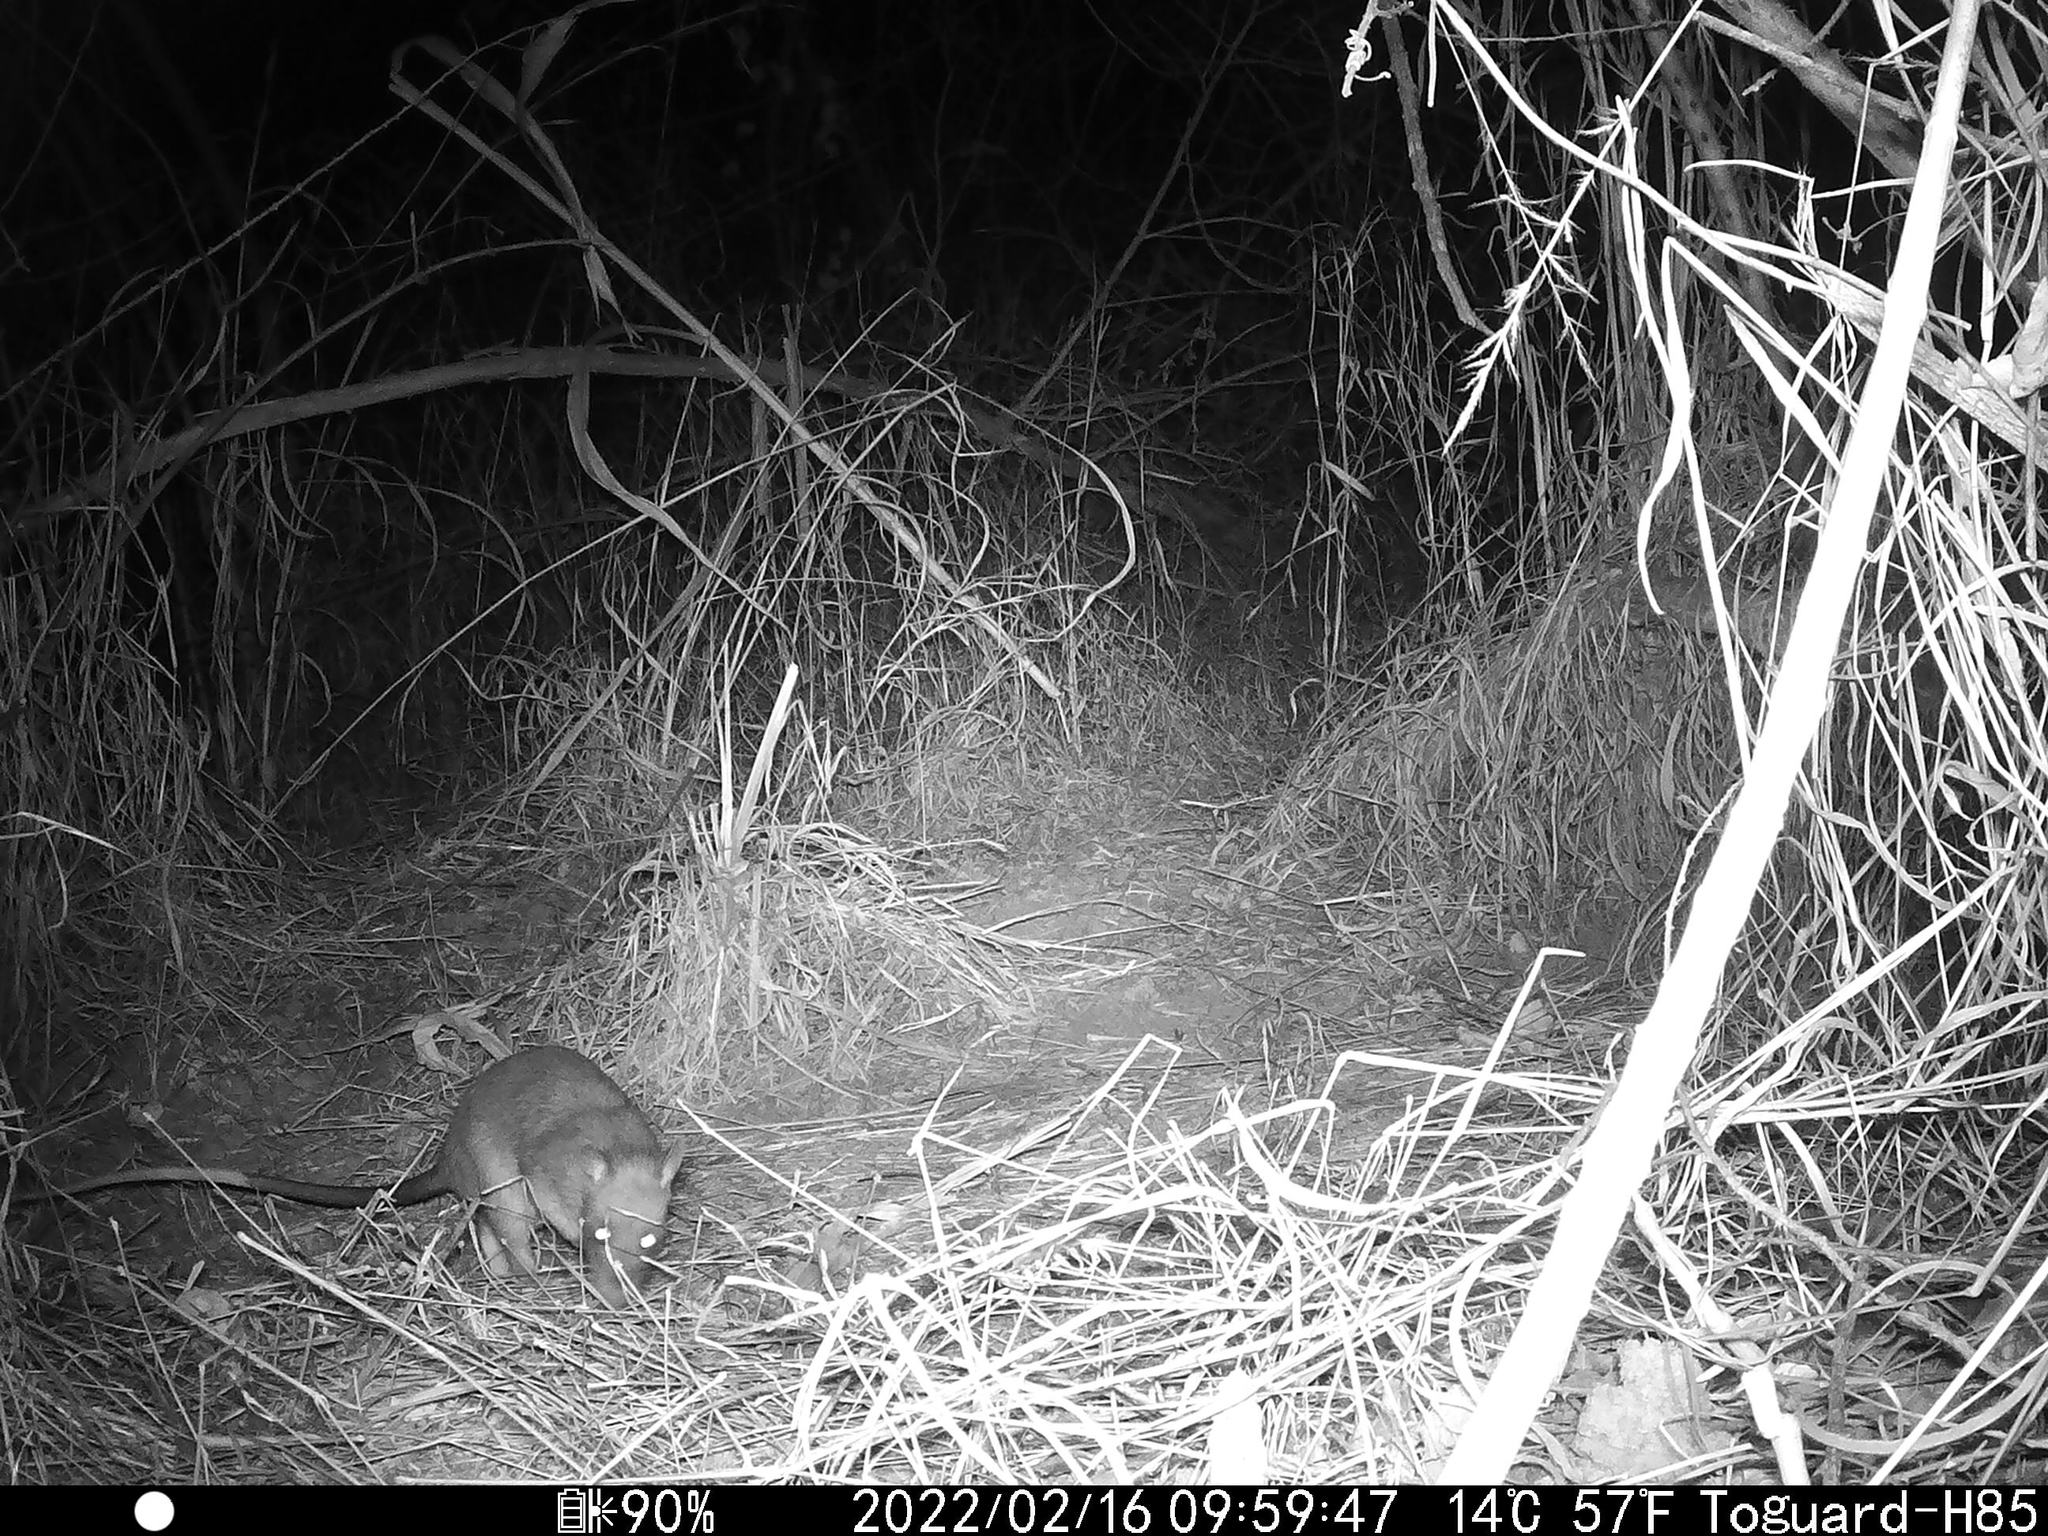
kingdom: Animalia
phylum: Chordata
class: Mammalia
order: Rodentia
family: Nesomyidae
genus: Cricetomys
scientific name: Cricetomys gambianus
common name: Northern giant pouched rat
